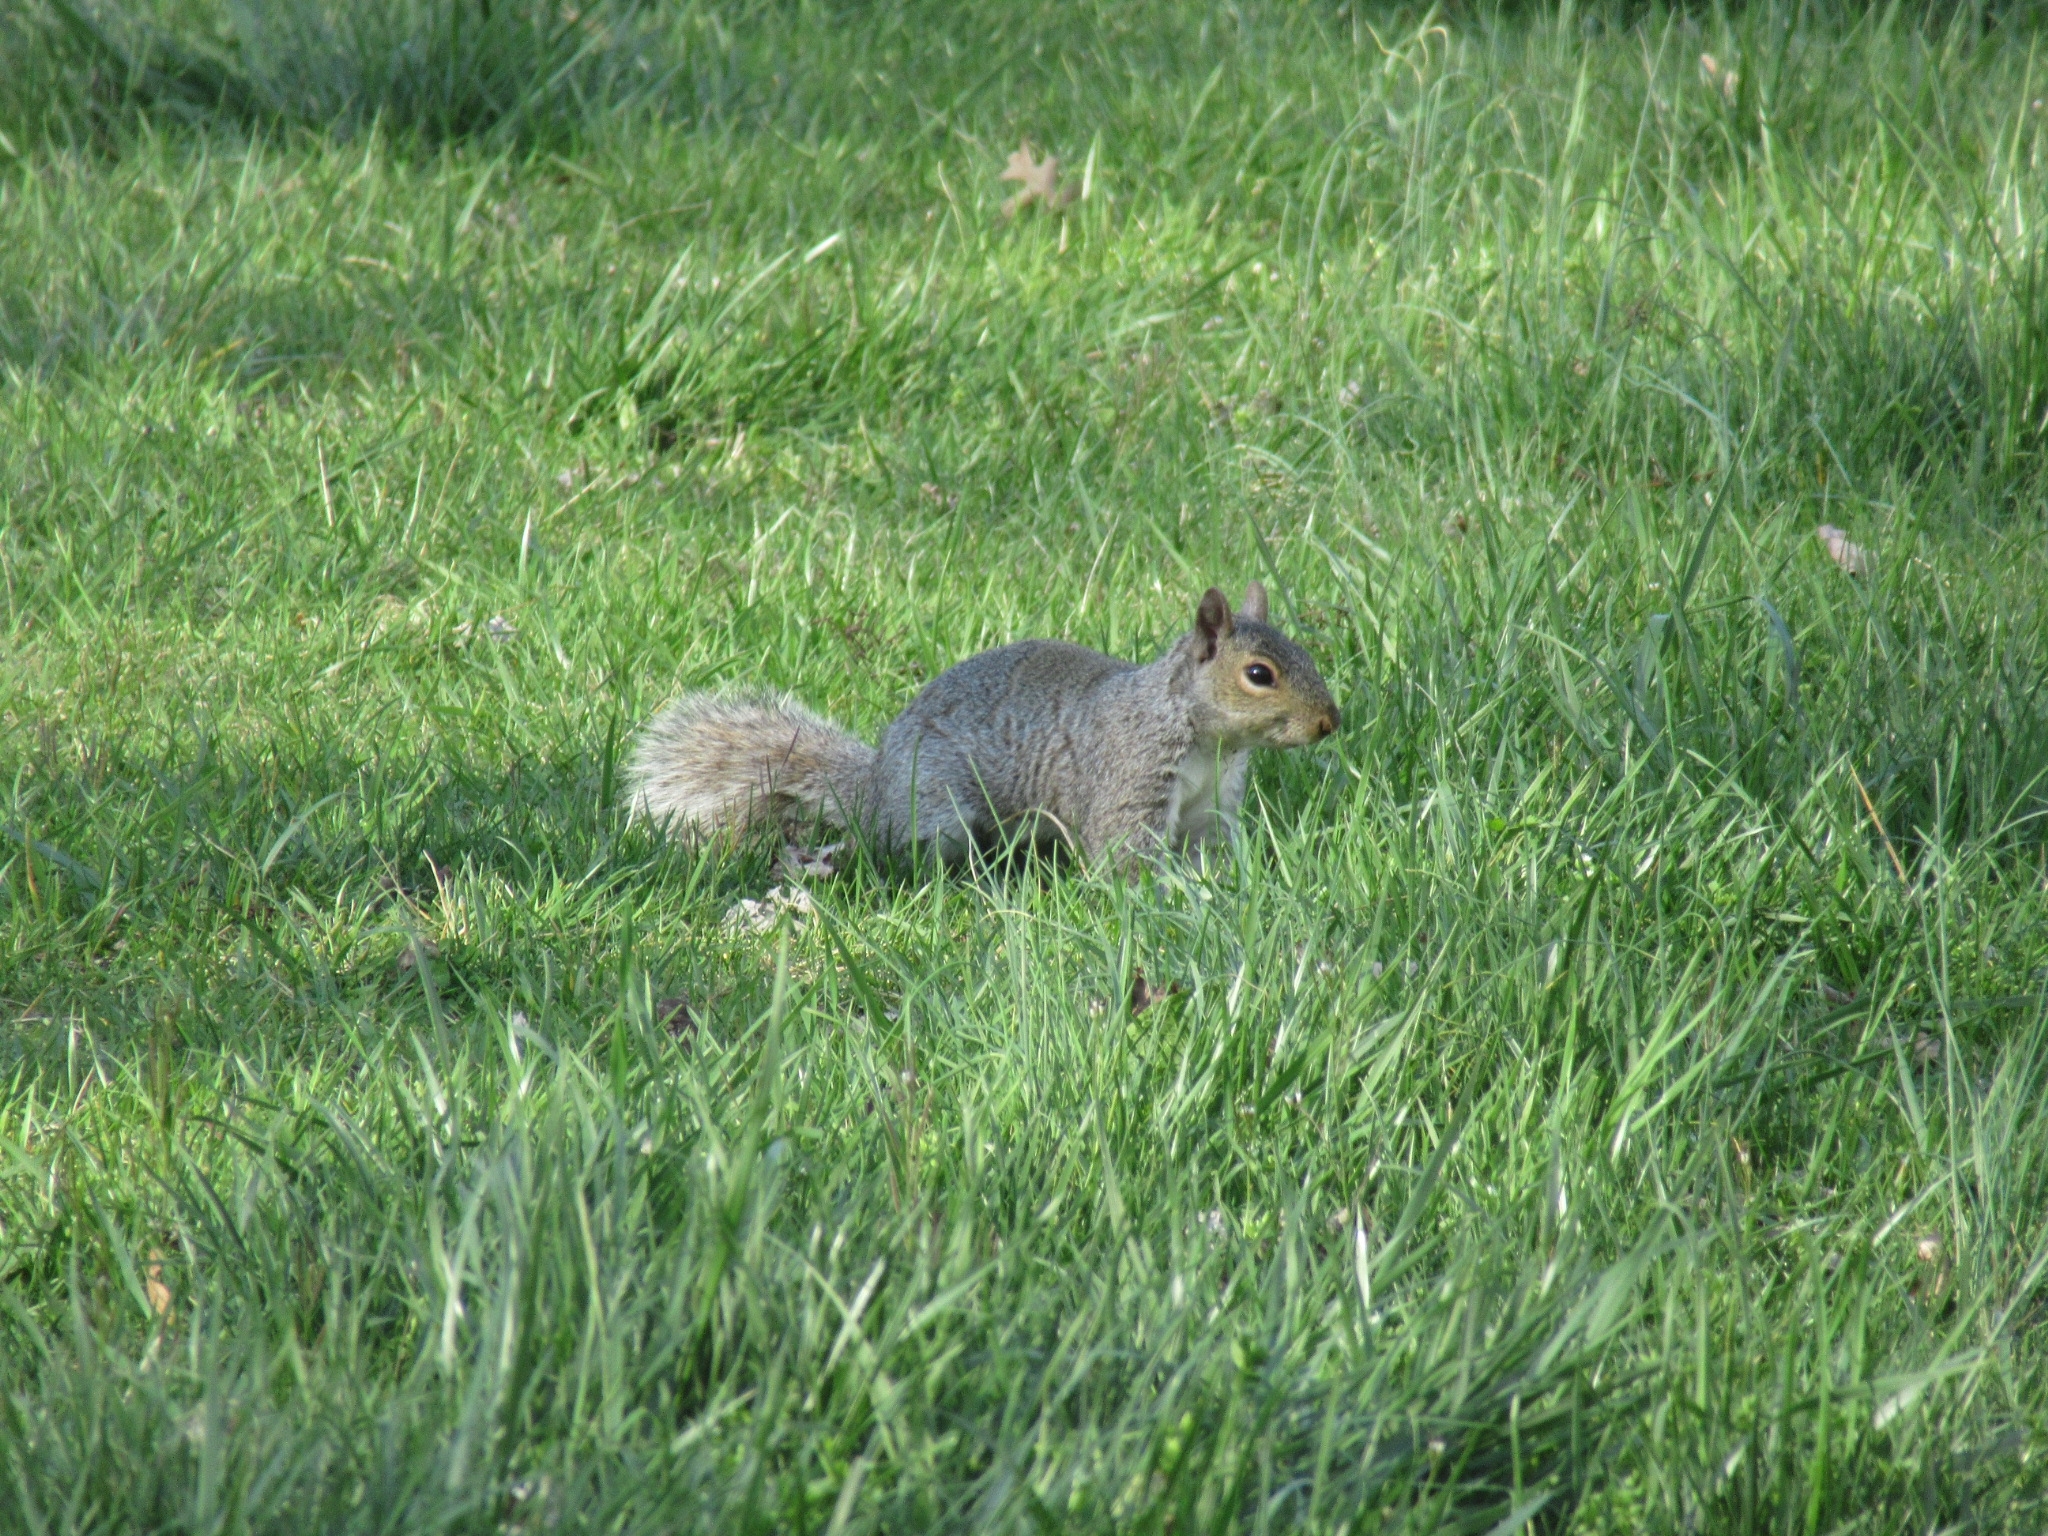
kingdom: Animalia
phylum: Chordata
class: Mammalia
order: Rodentia
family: Sciuridae
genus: Sciurus
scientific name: Sciurus carolinensis
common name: Eastern gray squirrel
